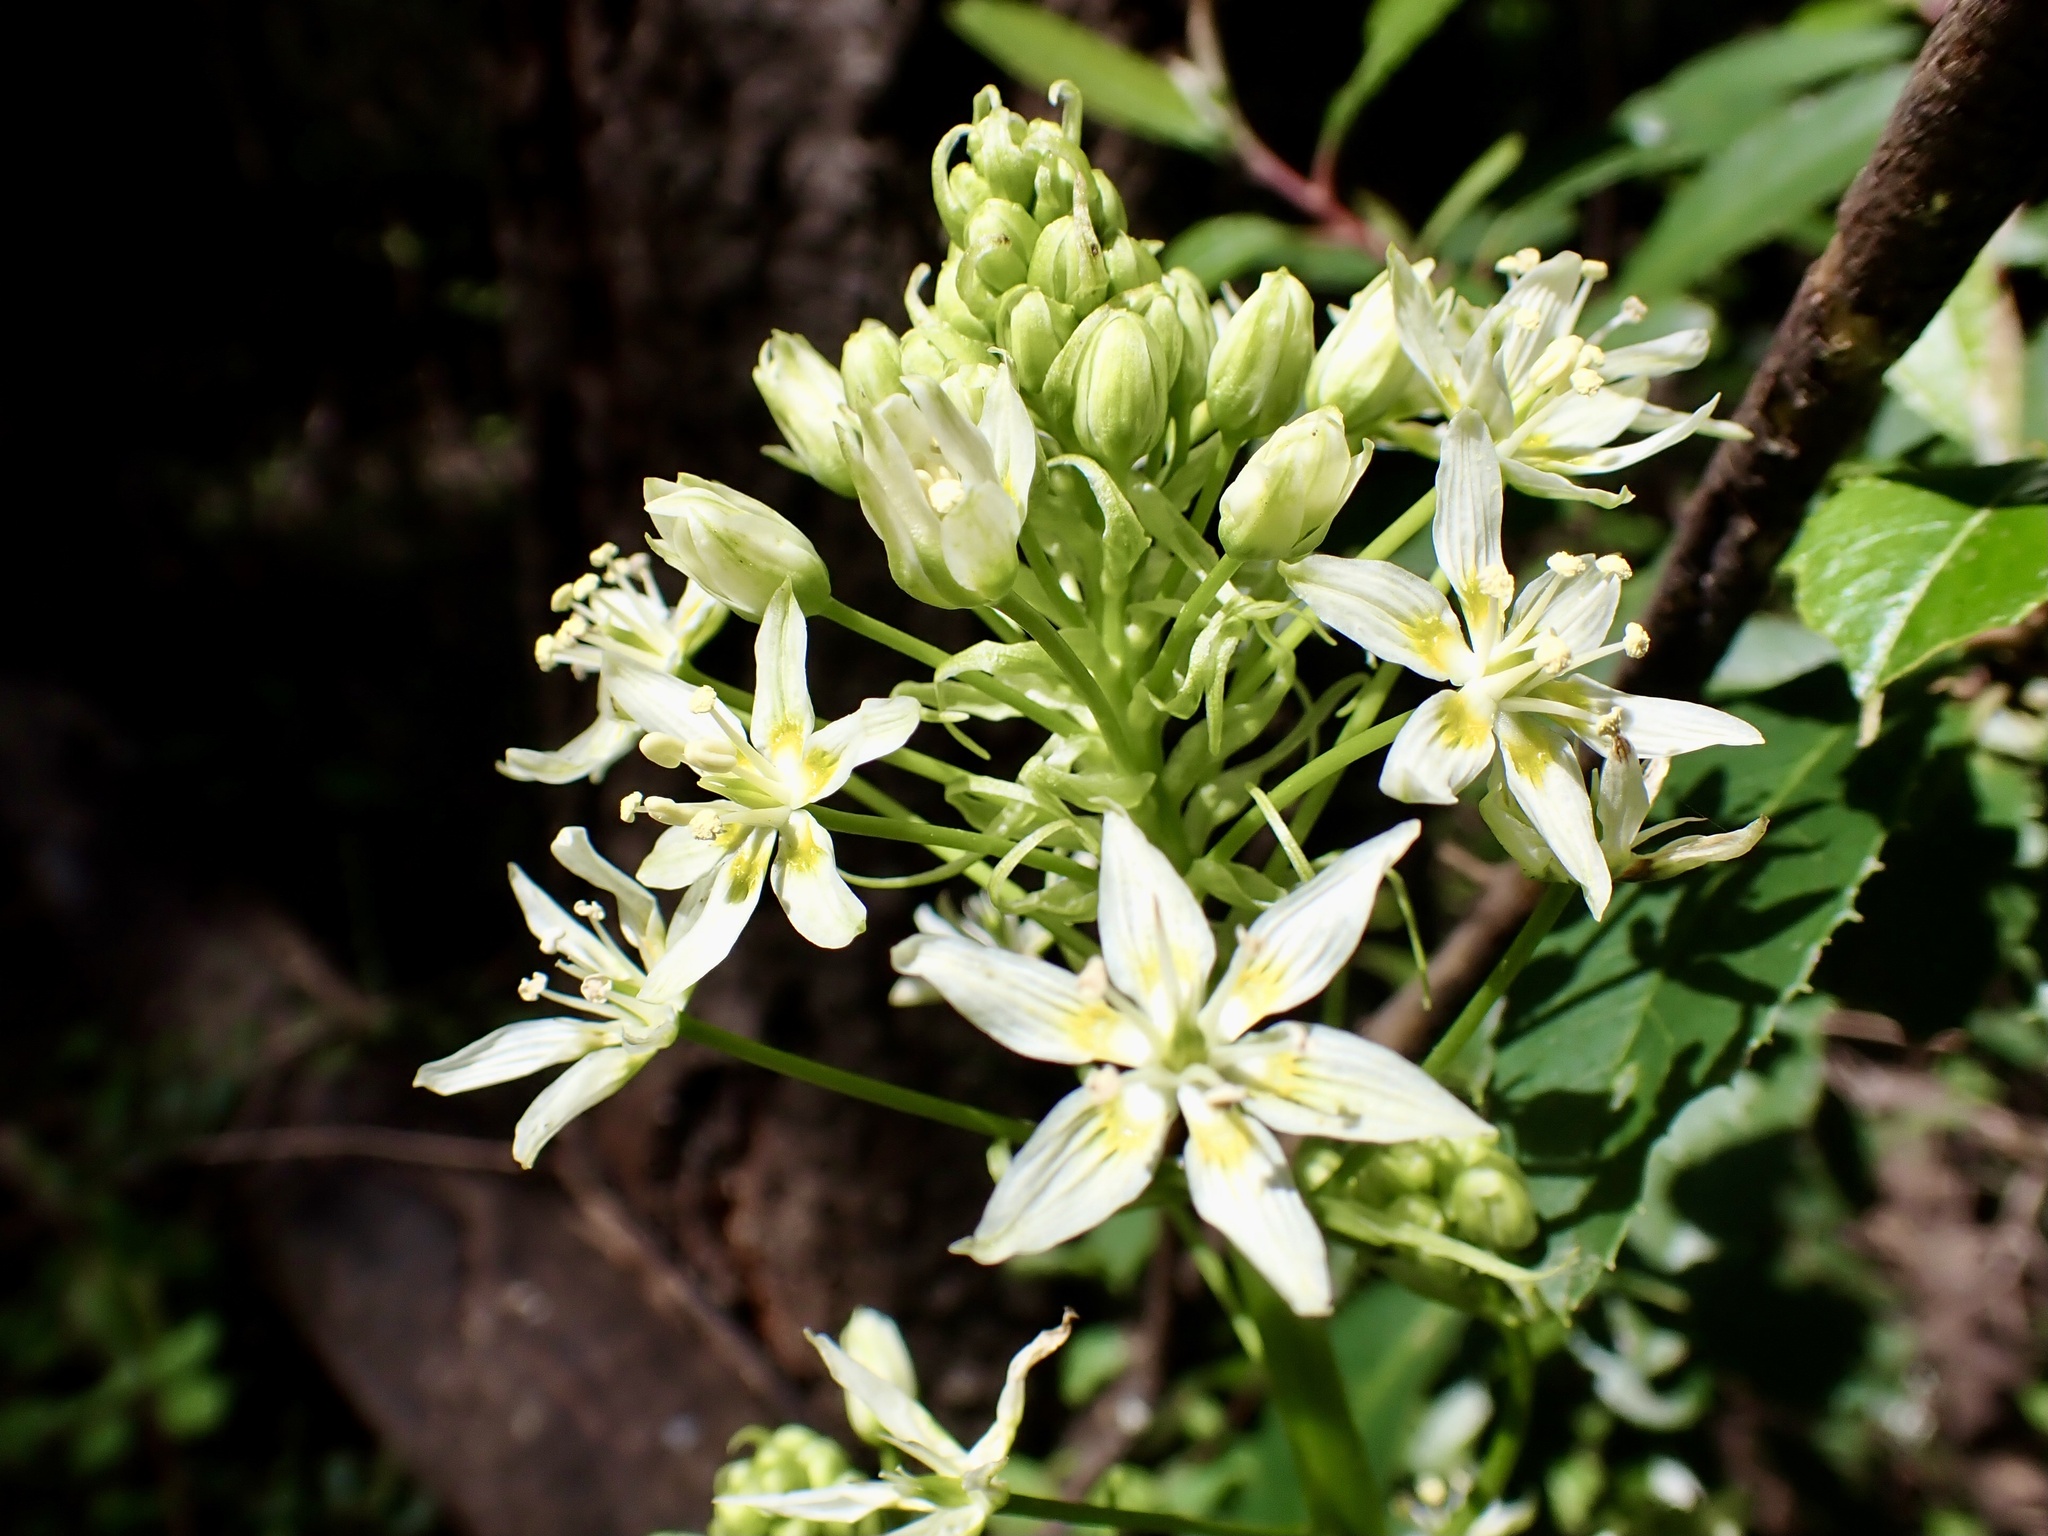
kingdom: Plantae
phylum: Tracheophyta
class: Liliopsida
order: Liliales
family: Melanthiaceae
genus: Toxicoscordion
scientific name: Toxicoscordion fremontii
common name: Fremont's death camas
